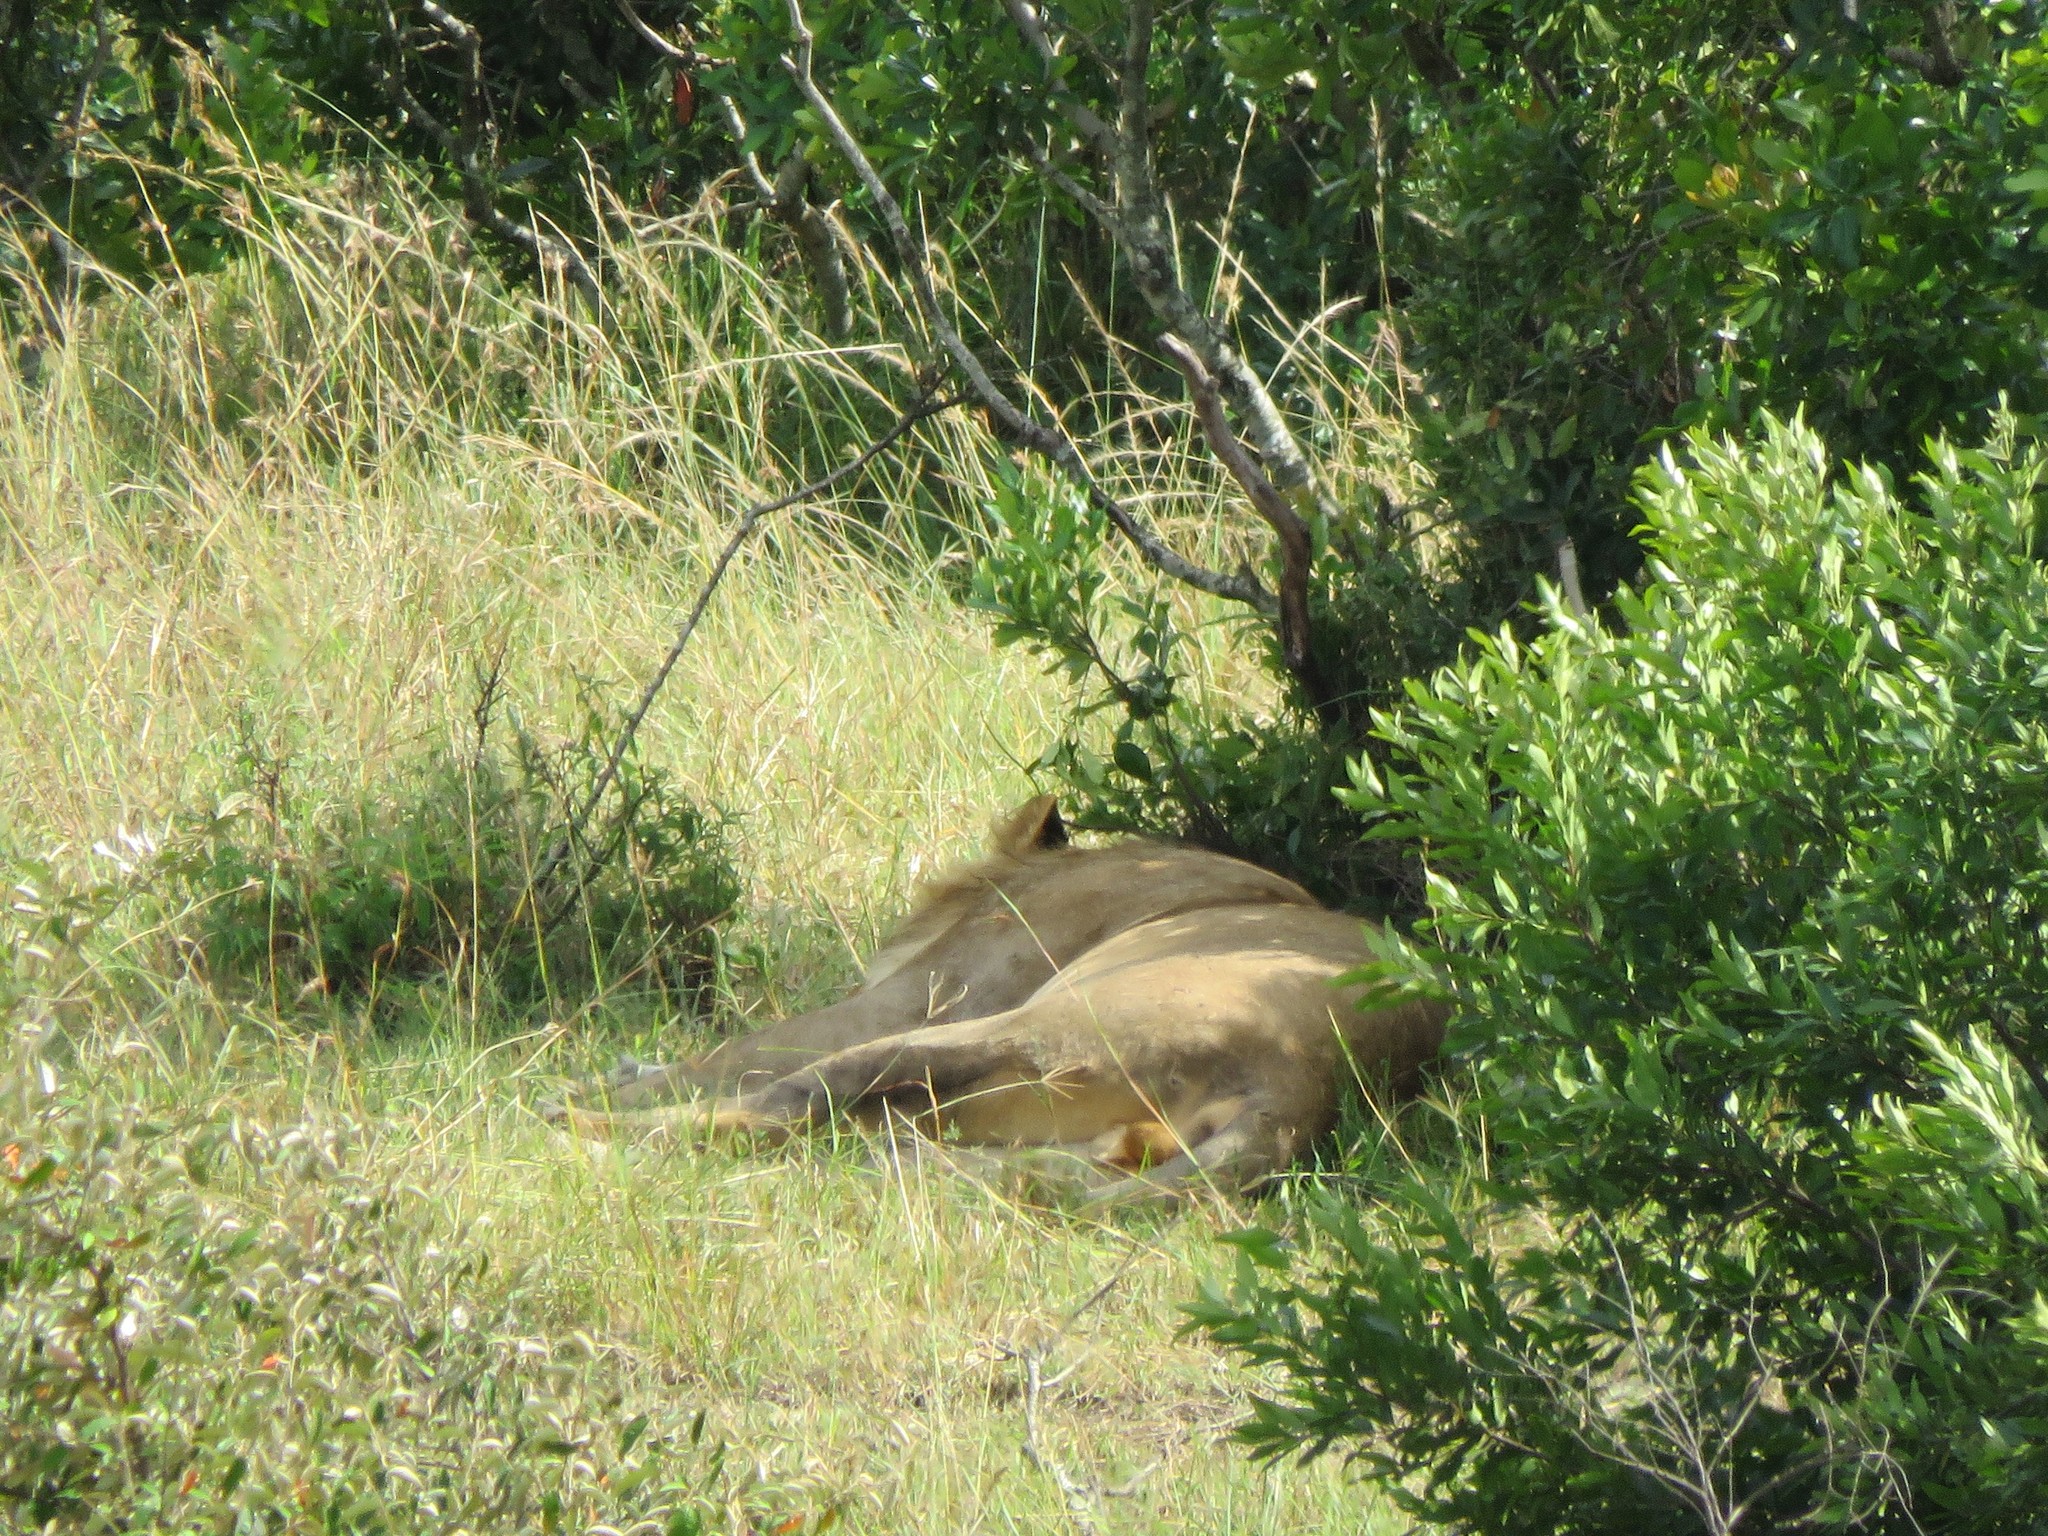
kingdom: Animalia
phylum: Chordata
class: Mammalia
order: Carnivora
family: Felidae
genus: Panthera
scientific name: Panthera leo
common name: Lion
